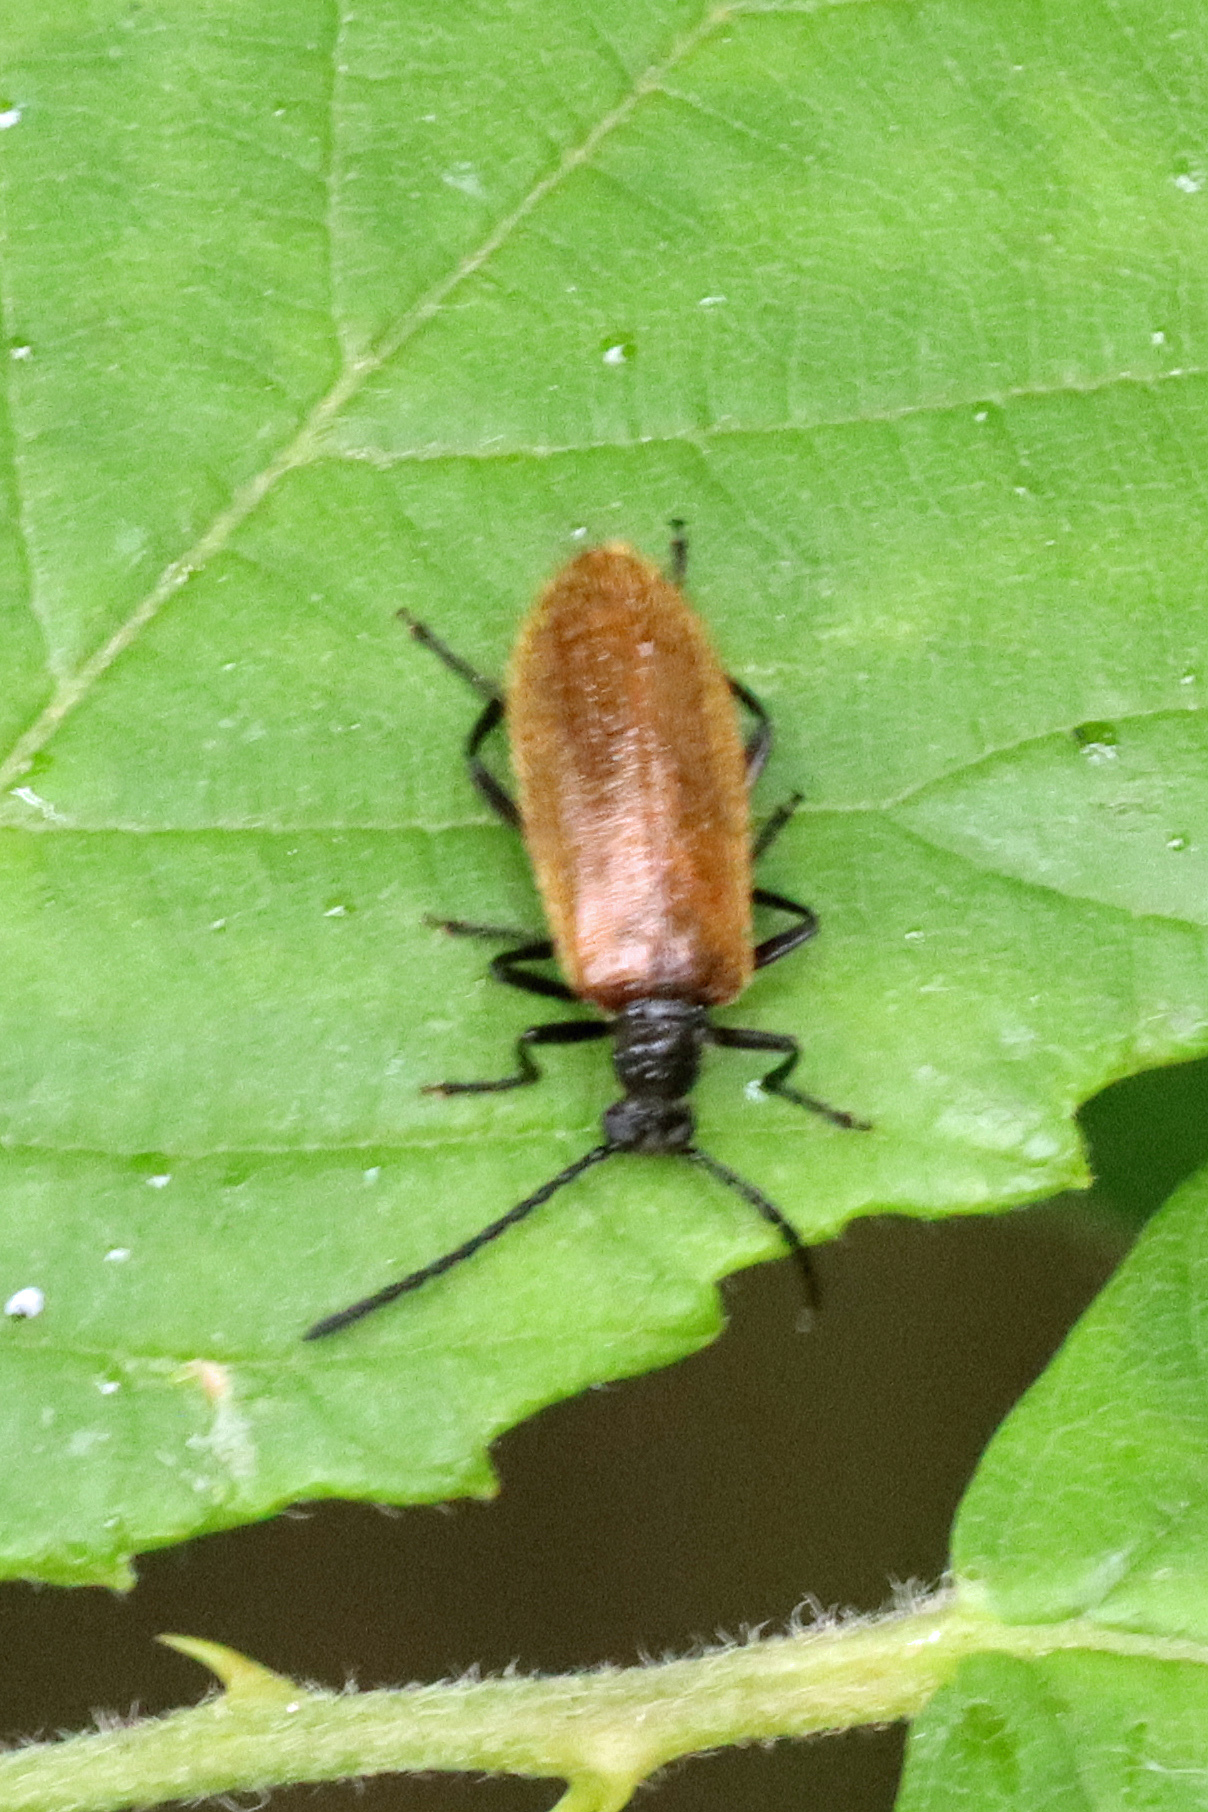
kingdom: Animalia
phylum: Arthropoda
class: Insecta
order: Coleoptera
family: Tenebrionidae
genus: Lagria
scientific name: Lagria hirta
